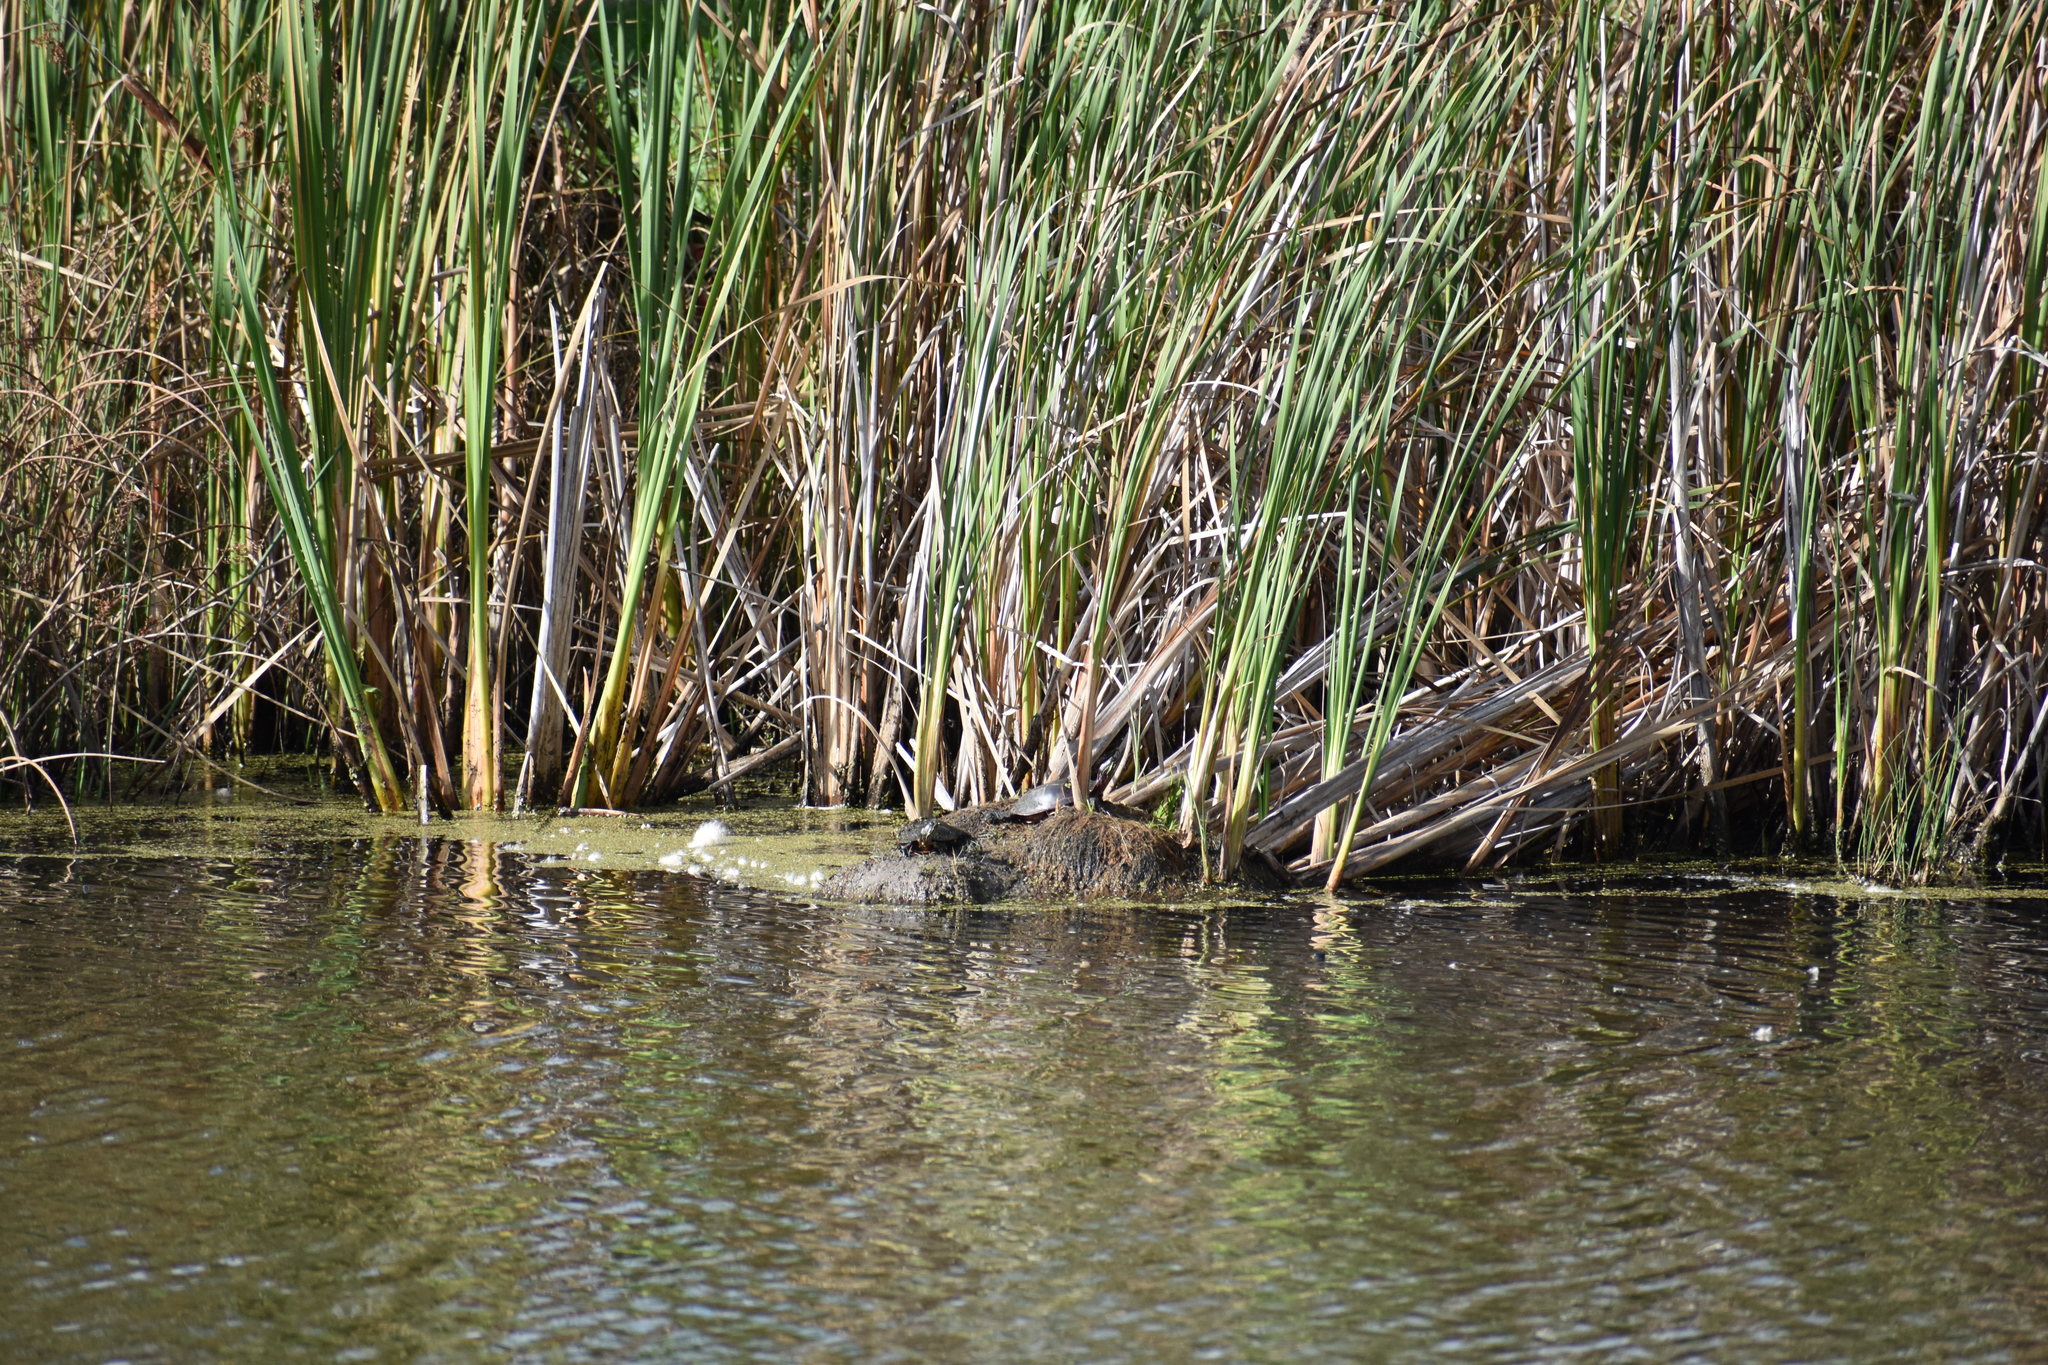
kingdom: Animalia
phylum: Chordata
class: Testudines
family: Emydidae
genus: Chrysemys
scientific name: Chrysemys picta
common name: Painted turtle
